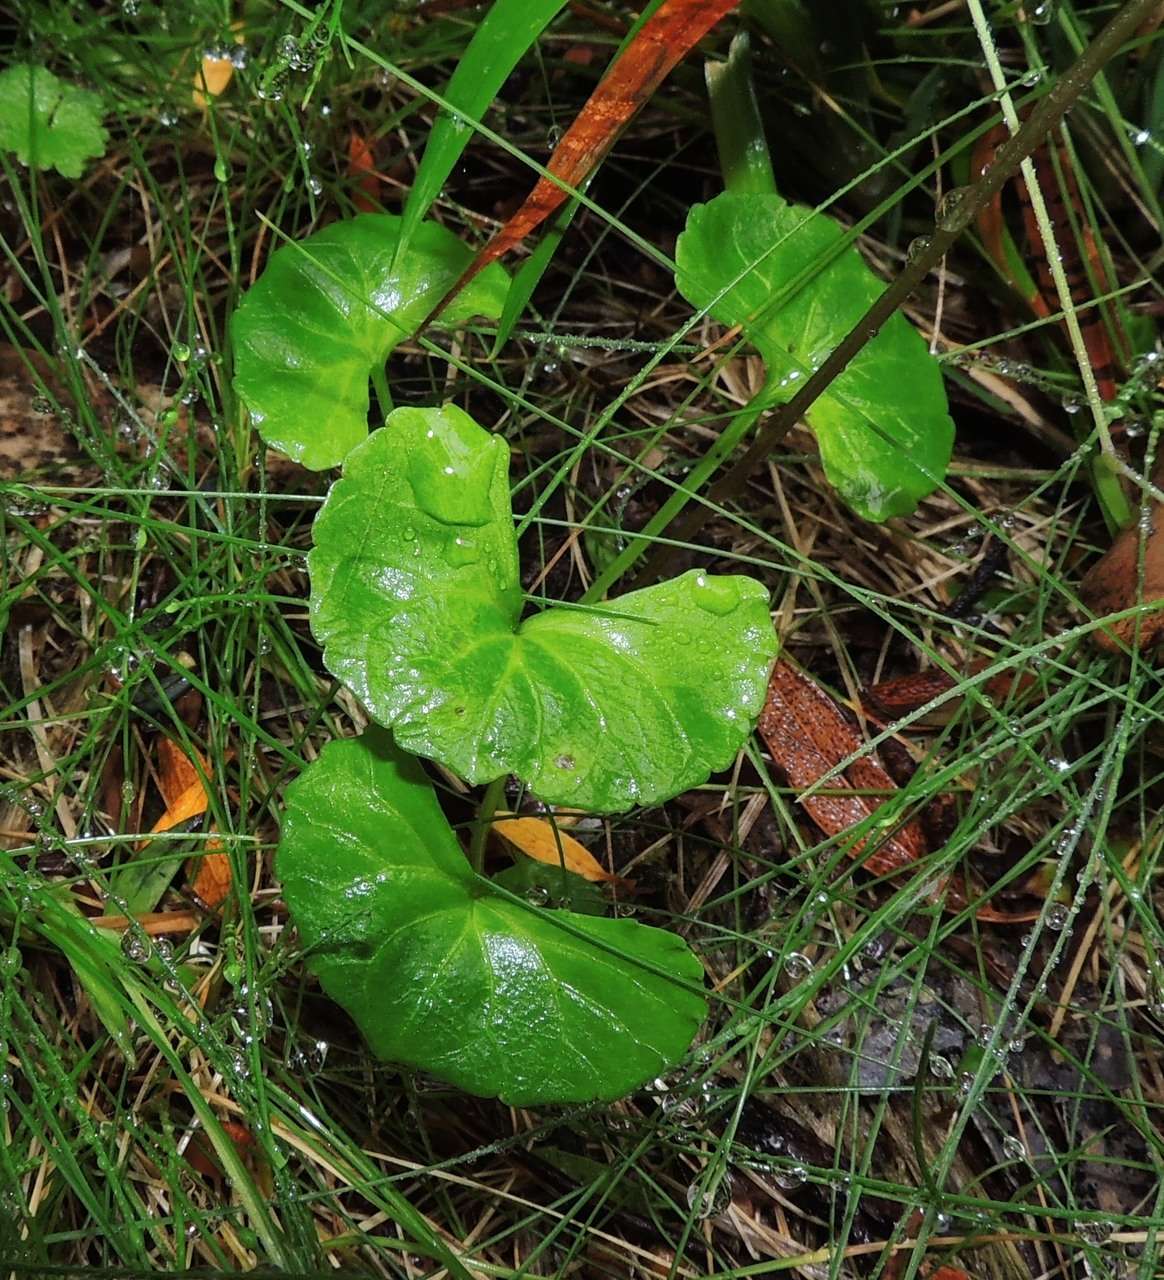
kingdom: Plantae
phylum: Tracheophyta
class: Magnoliopsida
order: Malpighiales
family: Violaceae
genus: Viola
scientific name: Viola eminens
